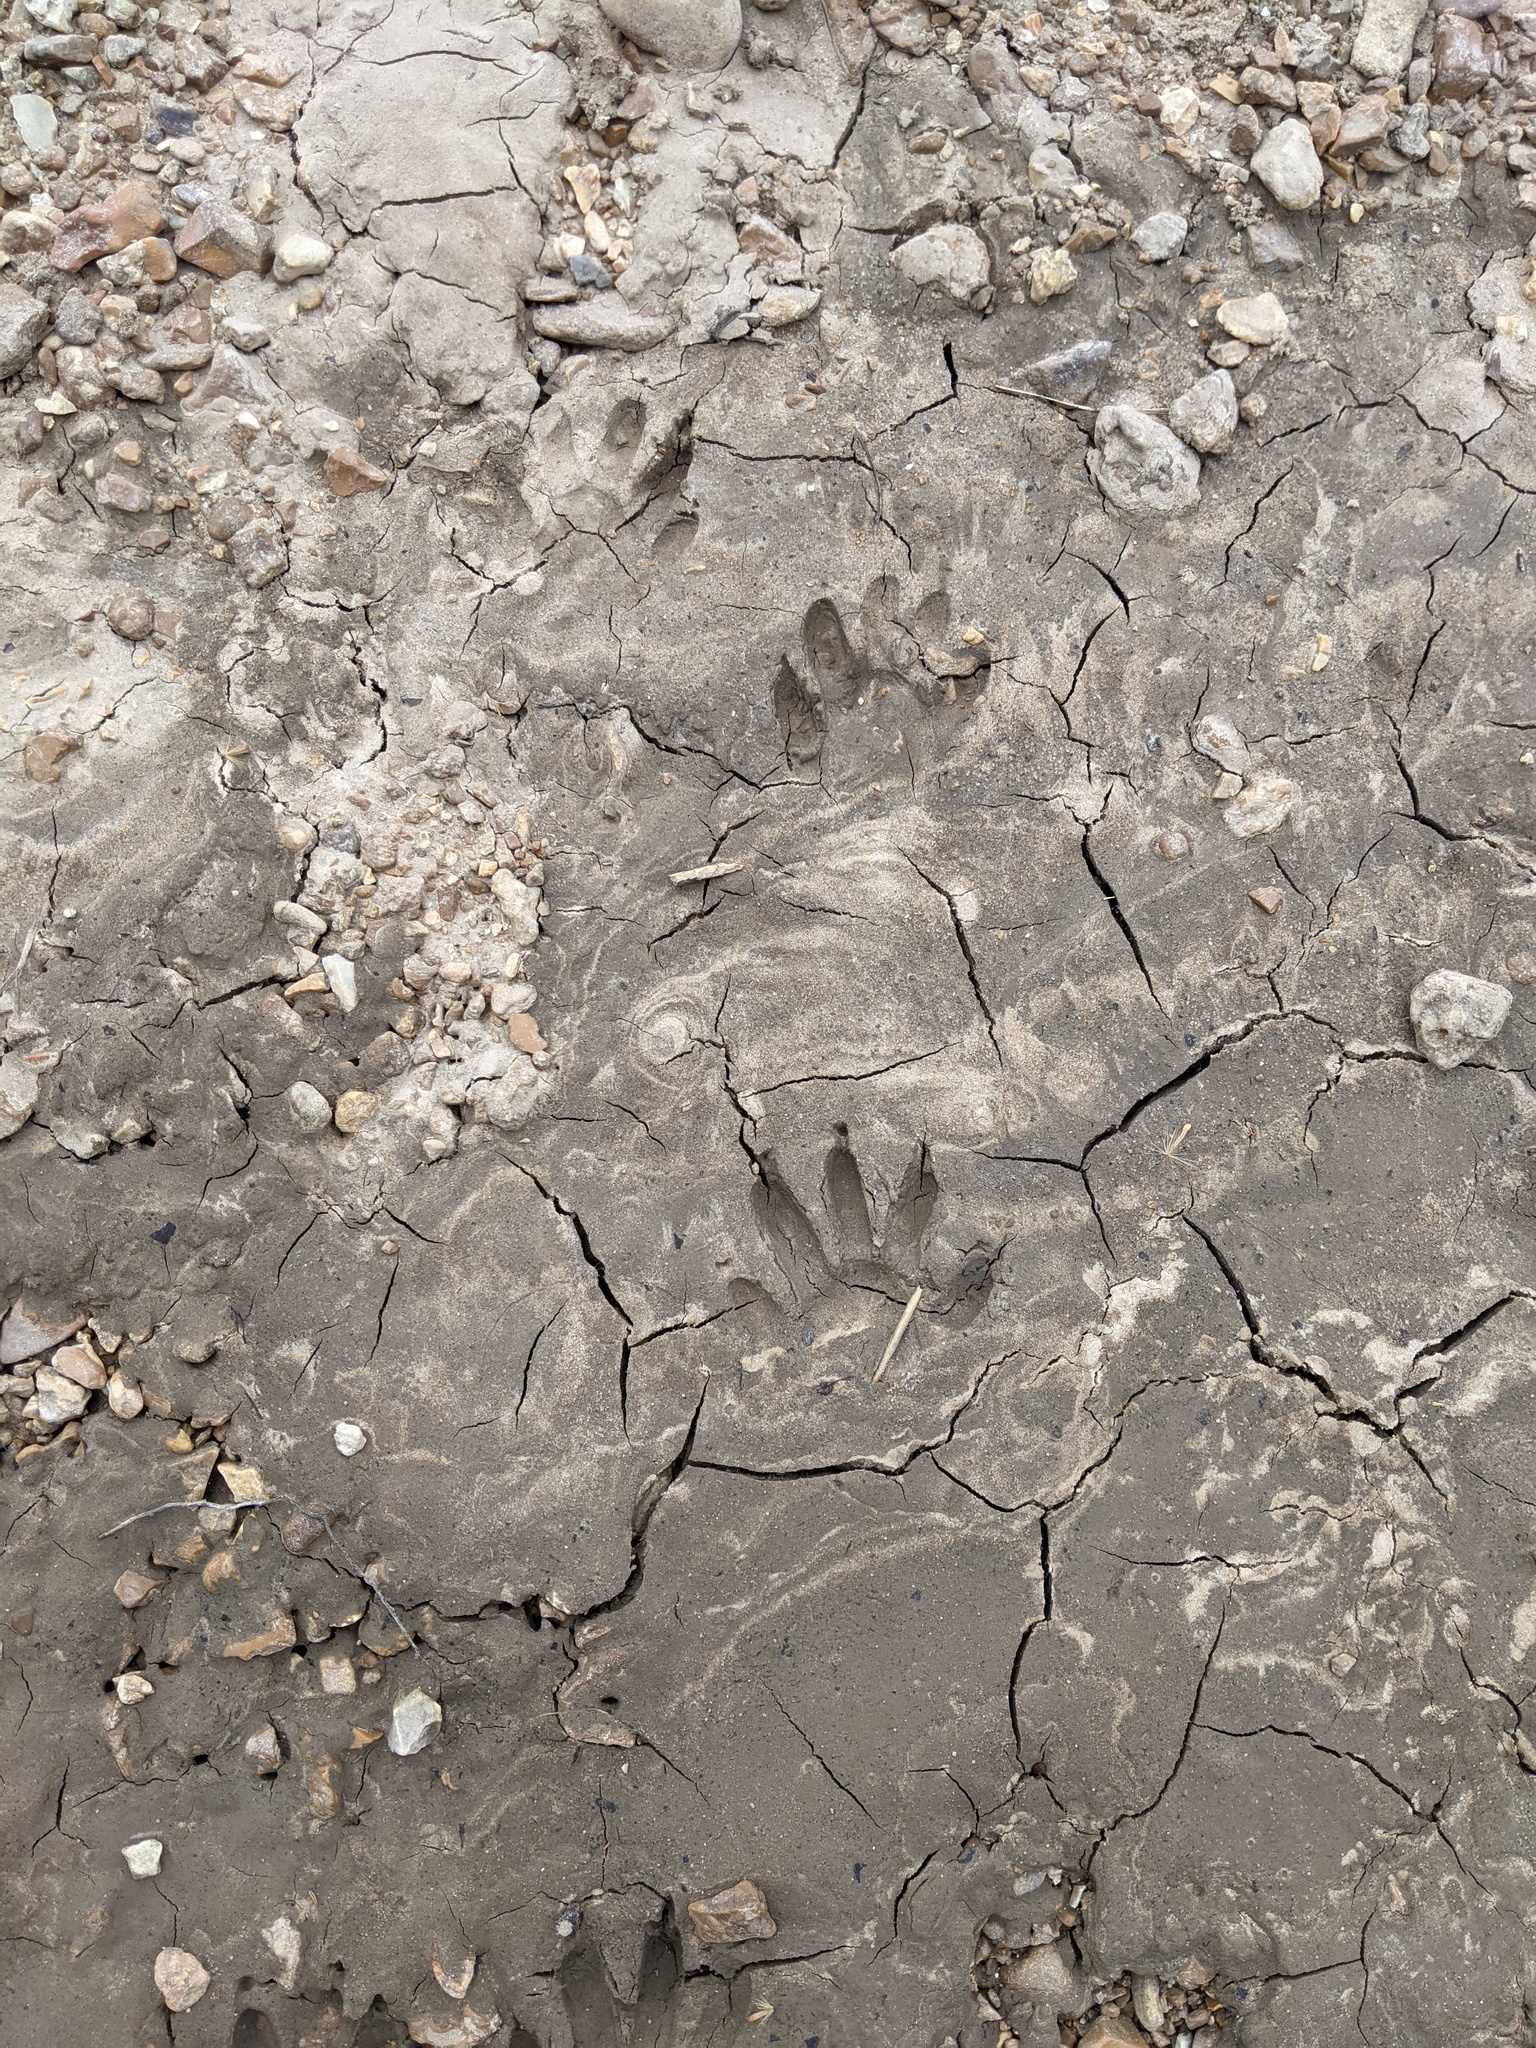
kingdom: Animalia
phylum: Chordata
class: Mammalia
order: Carnivora
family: Procyonidae
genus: Procyon
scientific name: Procyon lotor
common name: Raccoon
